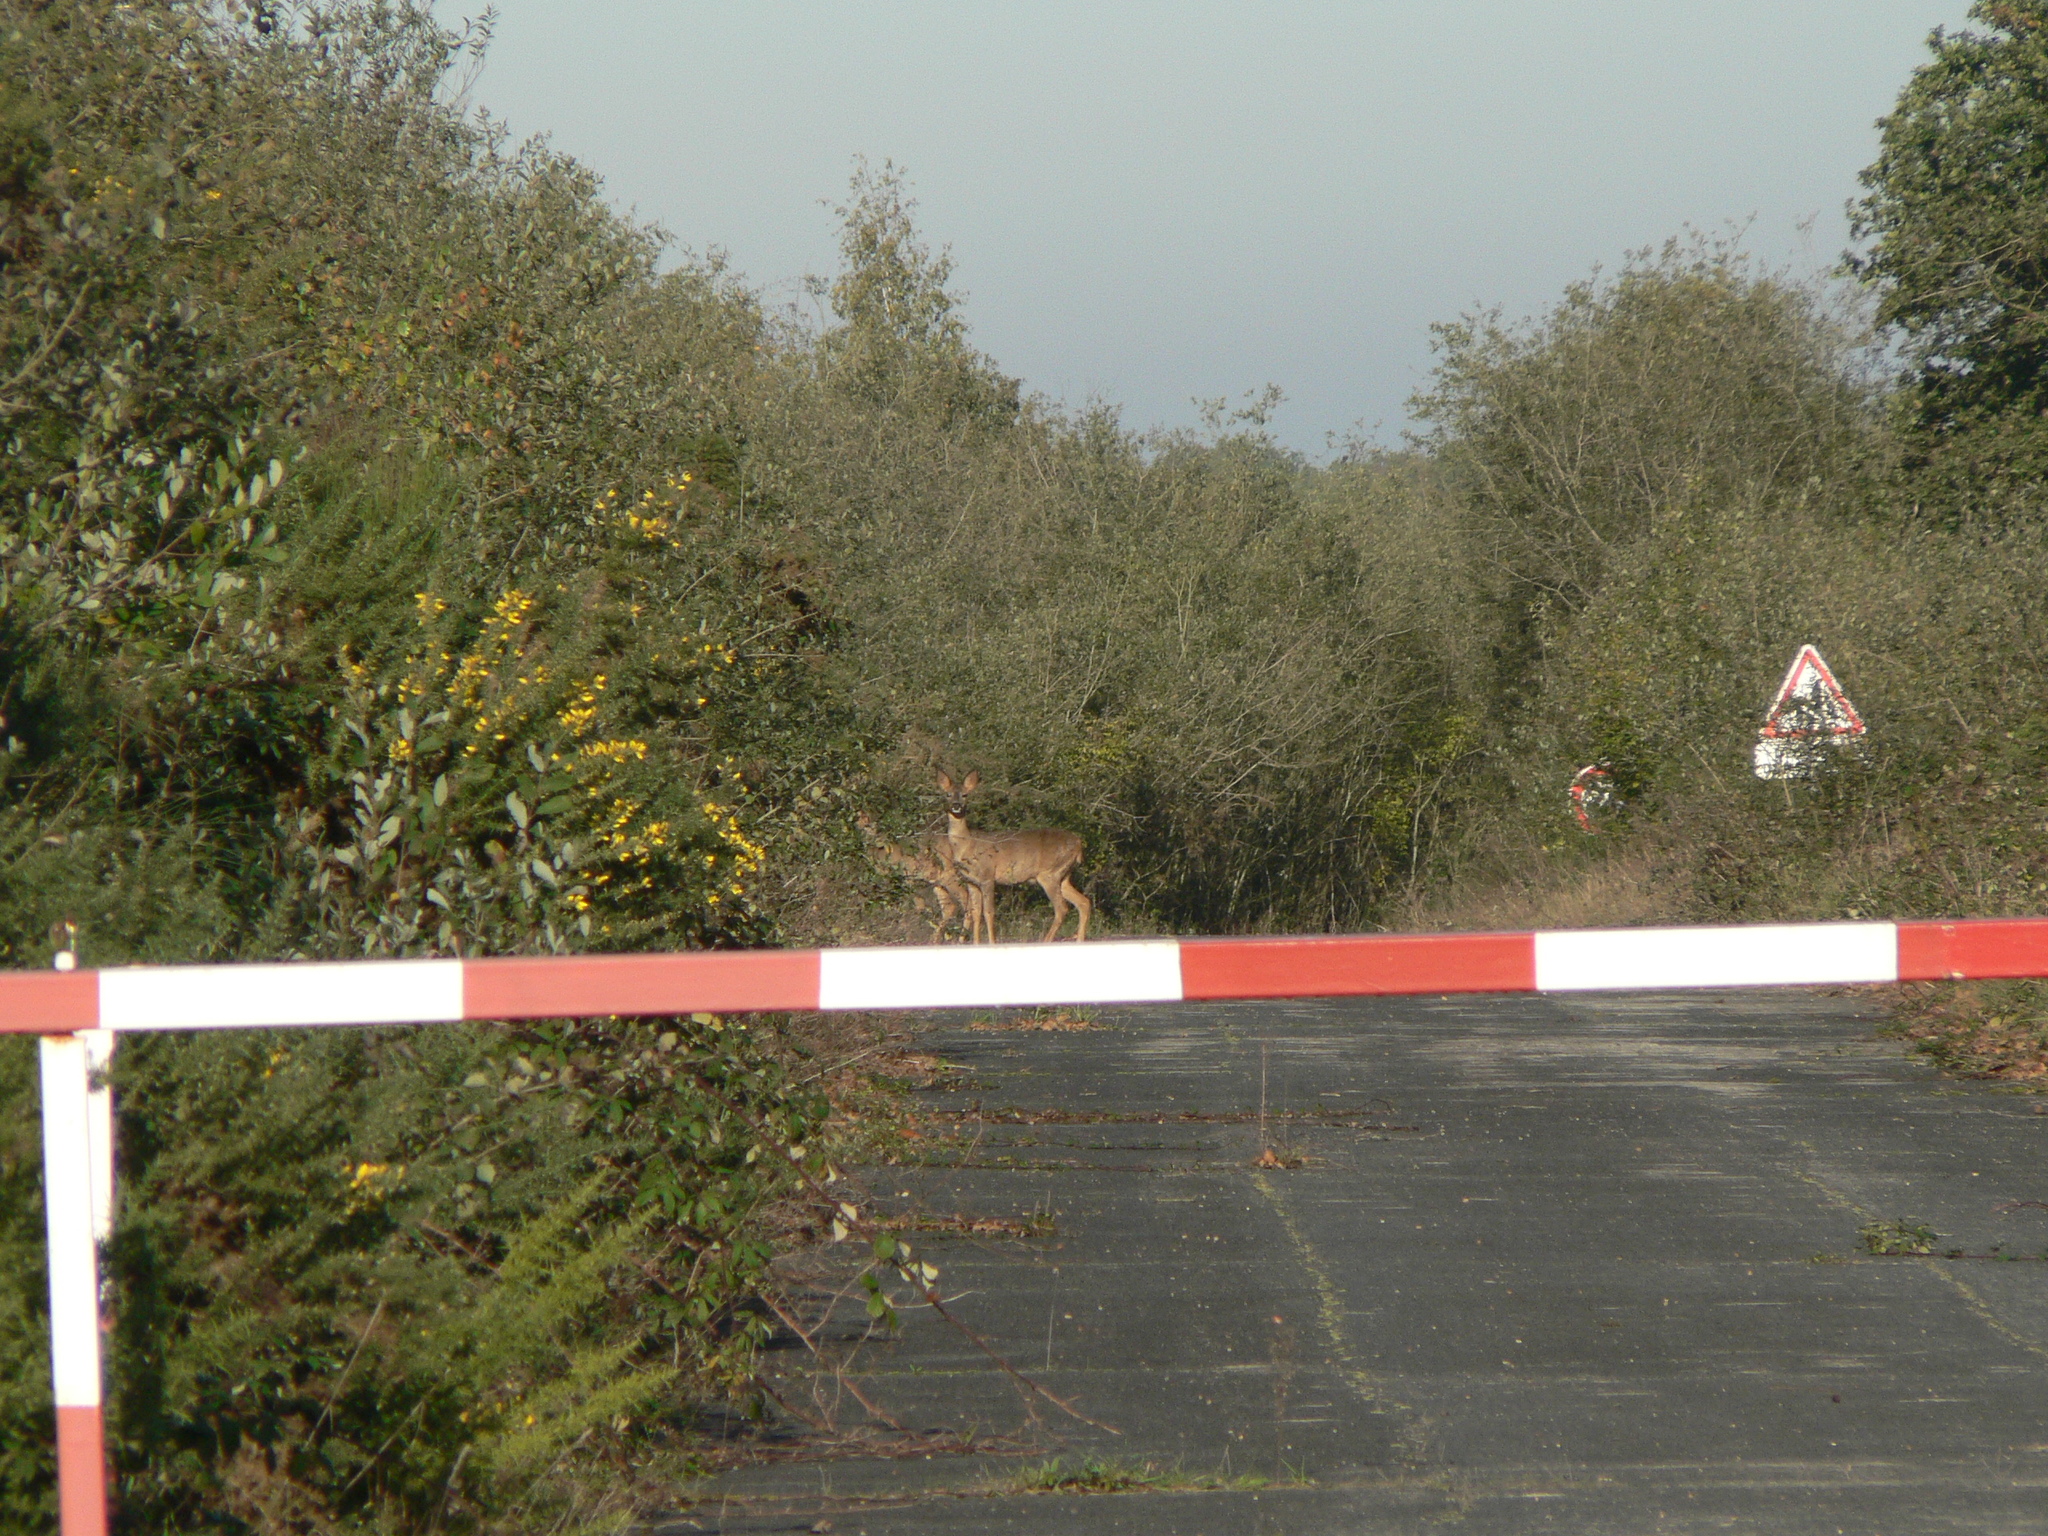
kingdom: Animalia
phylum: Chordata
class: Mammalia
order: Artiodactyla
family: Cervidae
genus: Capreolus
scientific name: Capreolus capreolus
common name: Western roe deer
